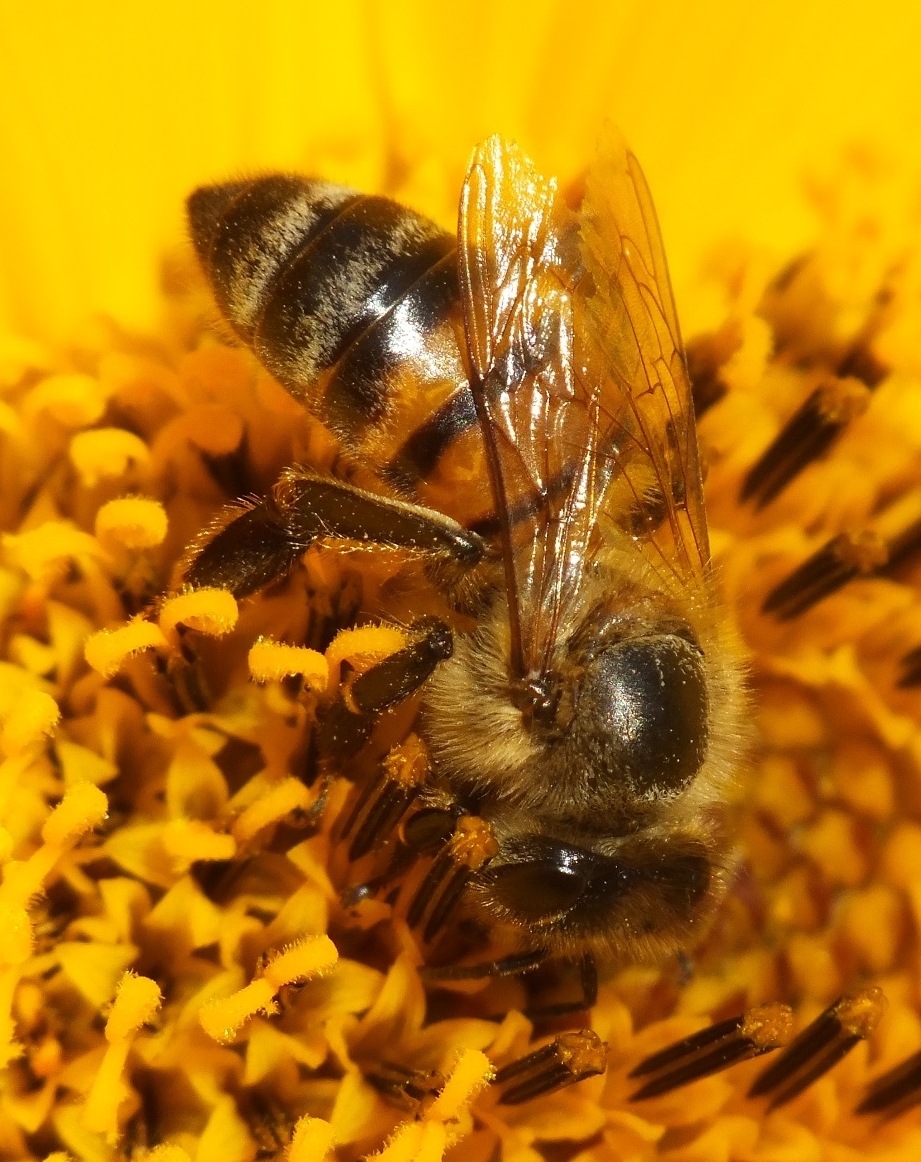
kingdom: Animalia
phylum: Arthropoda
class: Insecta
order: Hymenoptera
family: Apidae
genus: Apis
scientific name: Apis mellifera
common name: Honey bee
